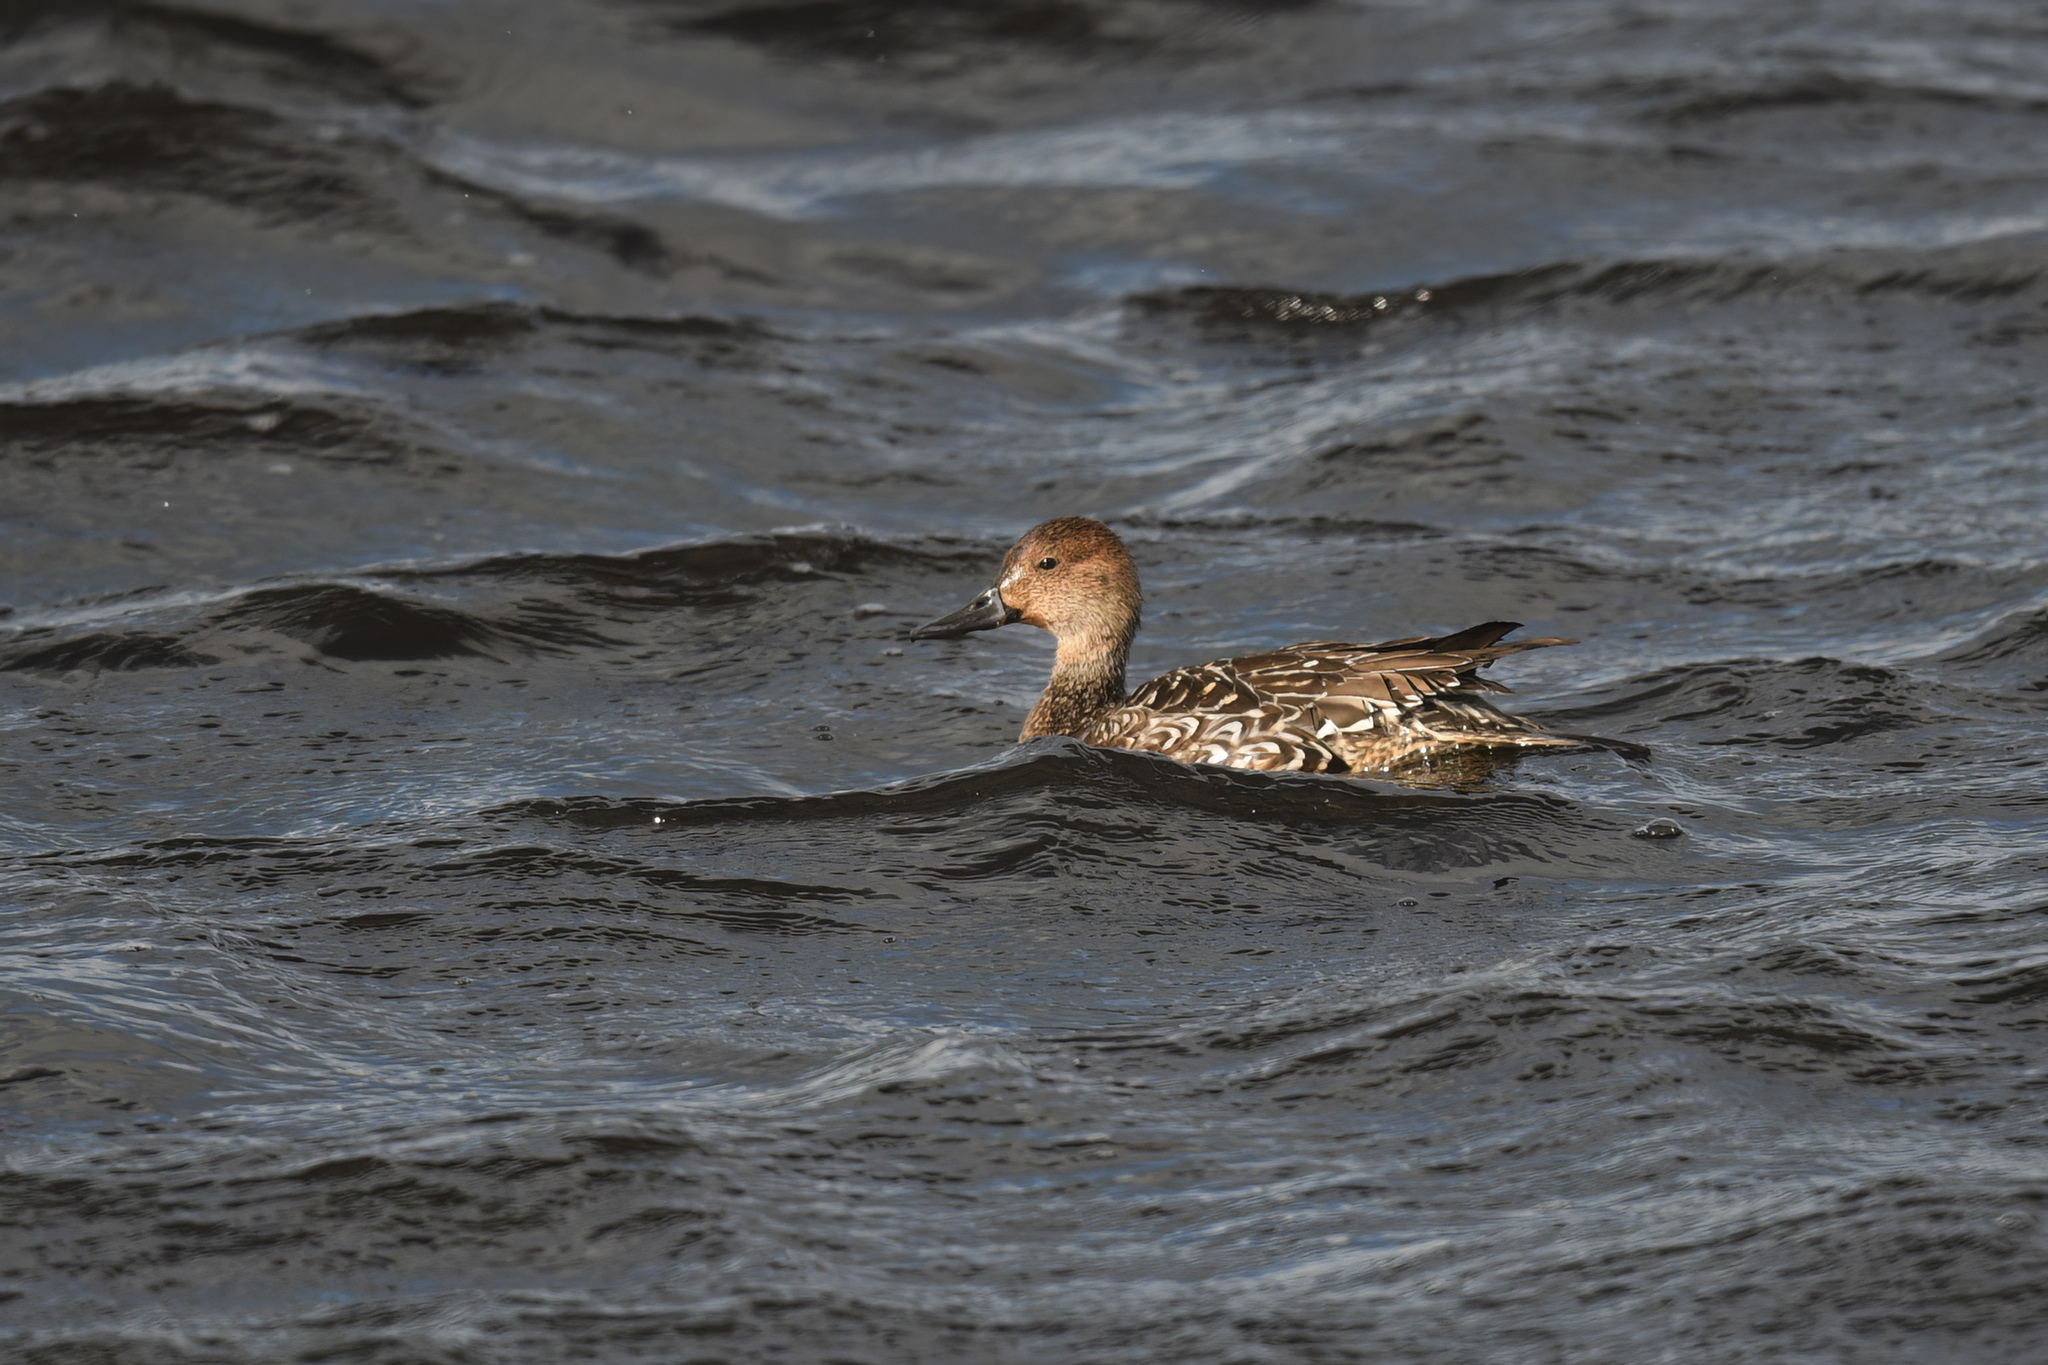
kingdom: Animalia
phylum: Chordata
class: Aves
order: Anseriformes
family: Anatidae
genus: Anas
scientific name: Anas acuta
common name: Northern pintail
